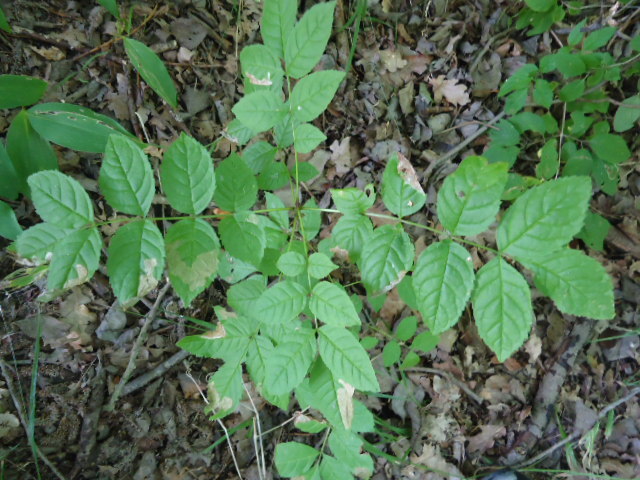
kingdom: Plantae
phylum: Tracheophyta
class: Magnoliopsida
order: Lamiales
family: Oleaceae
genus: Fraxinus
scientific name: Fraxinus excelsior
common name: European ash
